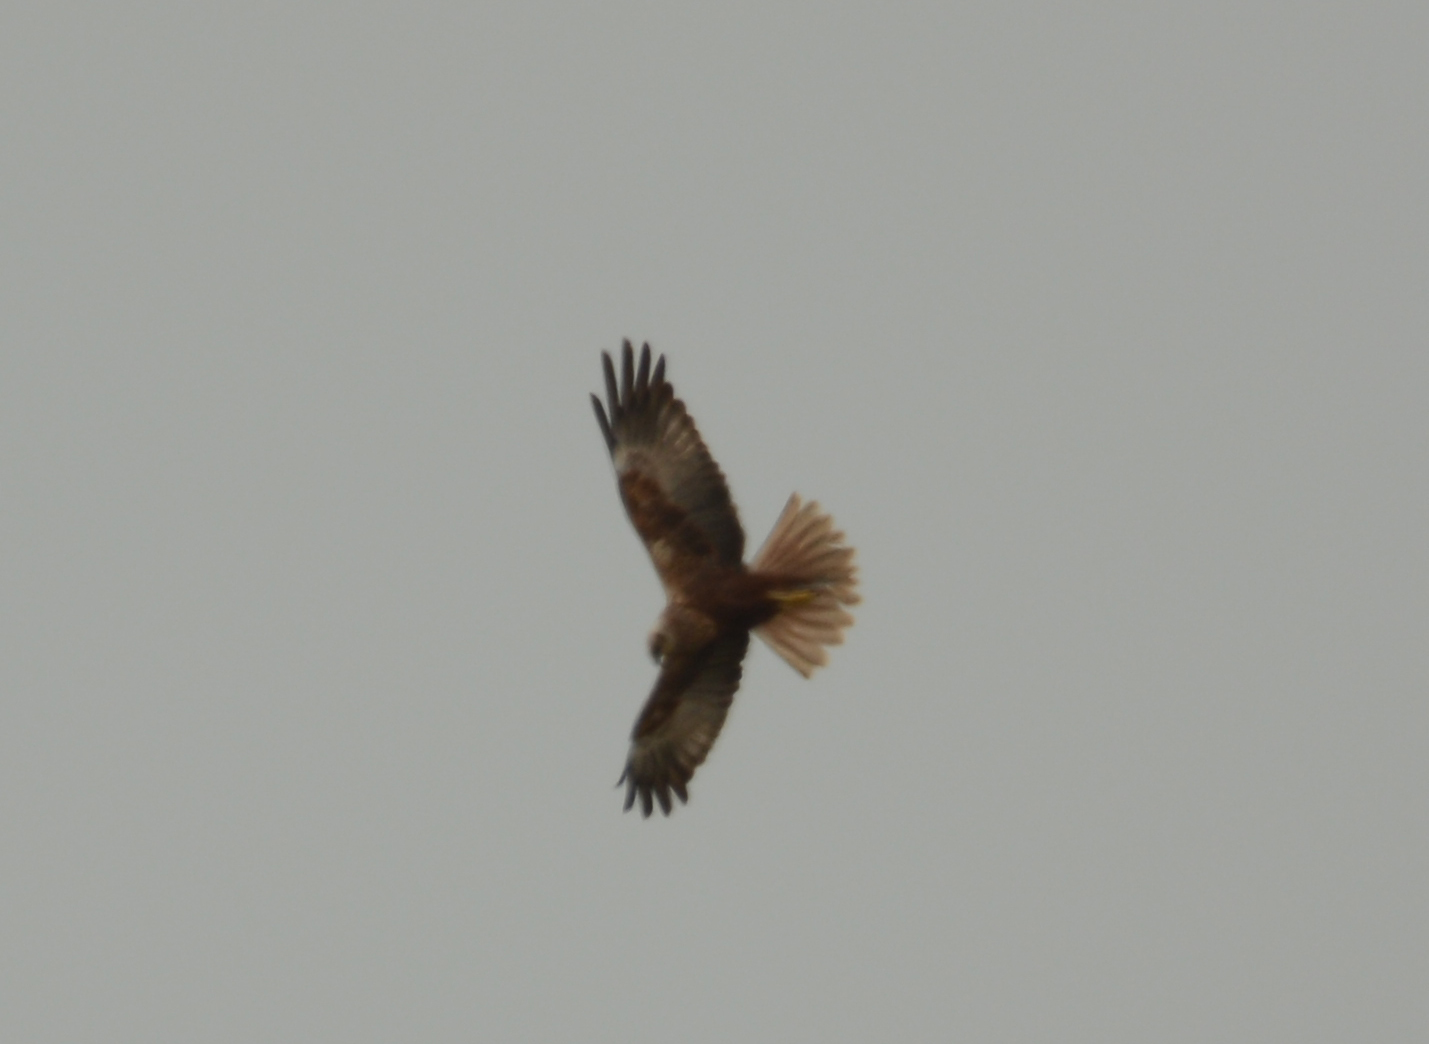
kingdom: Animalia
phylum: Chordata
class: Aves
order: Accipitriformes
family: Accipitridae
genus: Circus
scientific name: Circus aeruginosus
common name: Western marsh harrier
